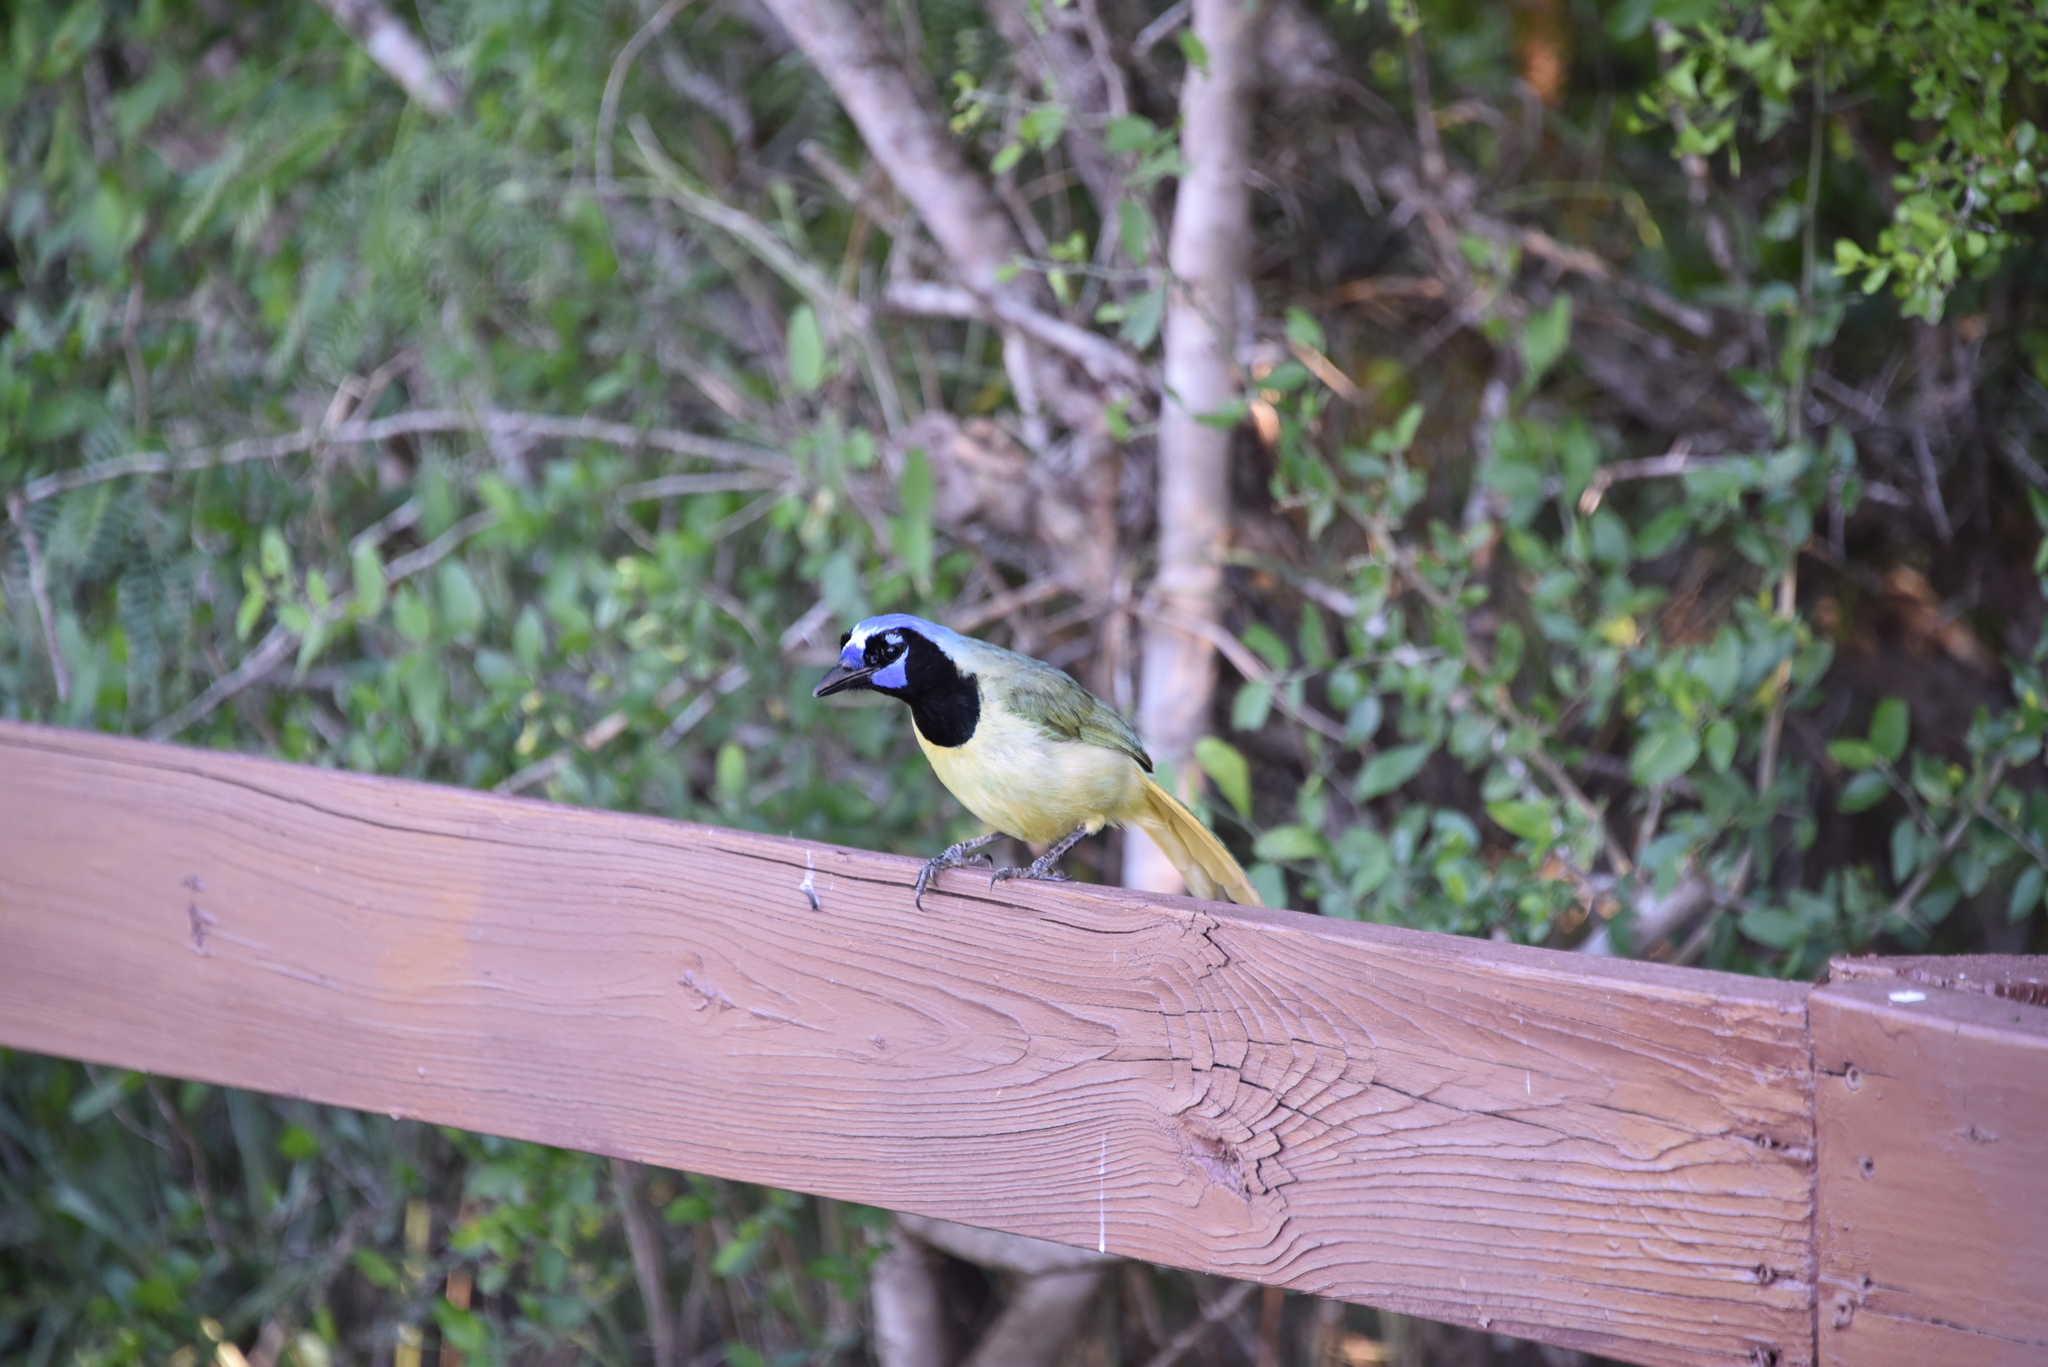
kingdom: Animalia
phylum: Chordata
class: Aves
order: Passeriformes
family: Corvidae
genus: Cyanocorax
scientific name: Cyanocorax yncas
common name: Green jay
